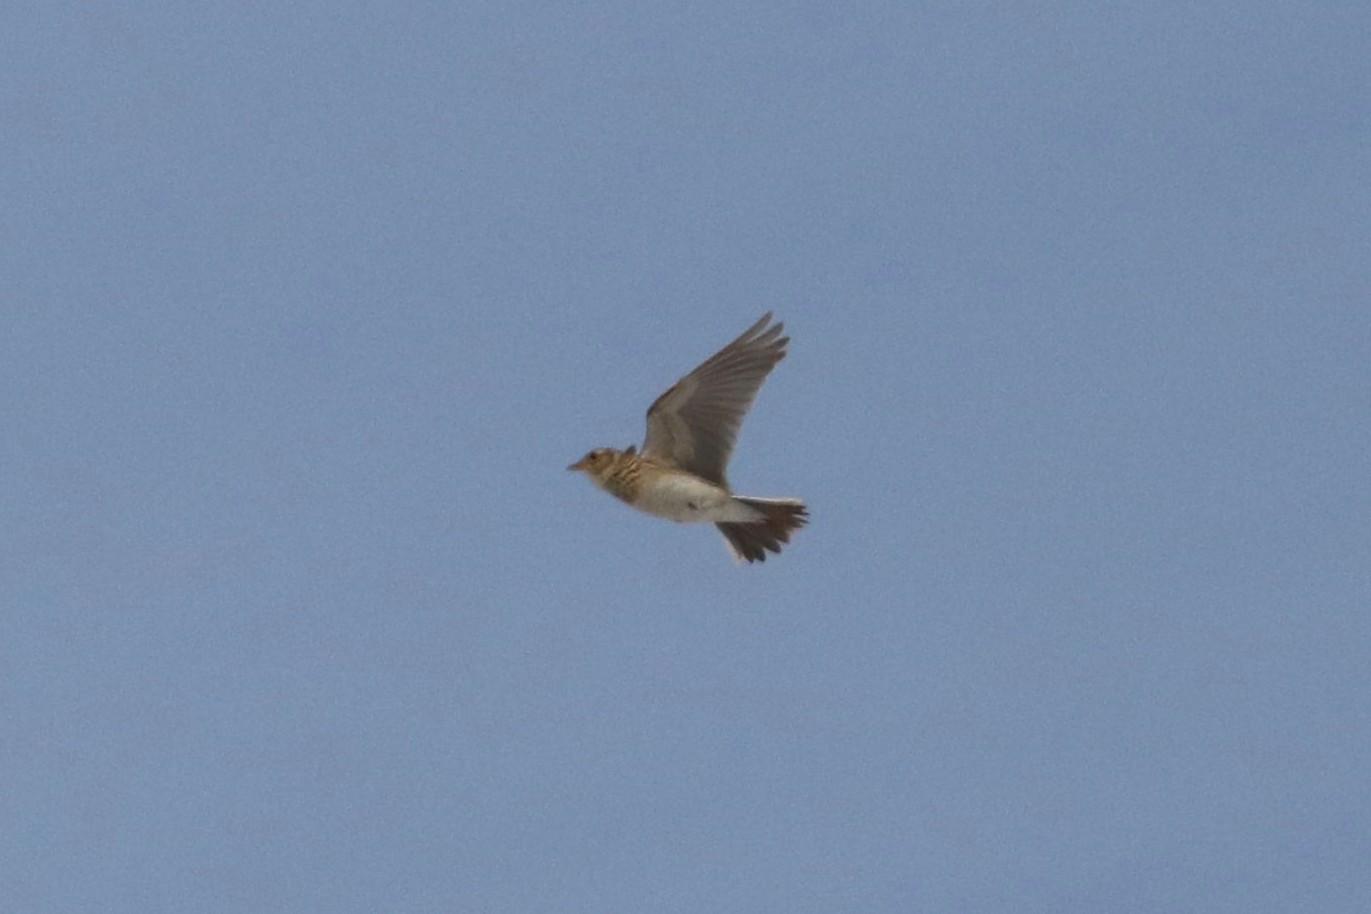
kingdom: Animalia
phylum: Chordata
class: Aves
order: Passeriformes
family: Alaudidae
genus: Alauda
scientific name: Alauda arvensis
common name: Eurasian skylark
